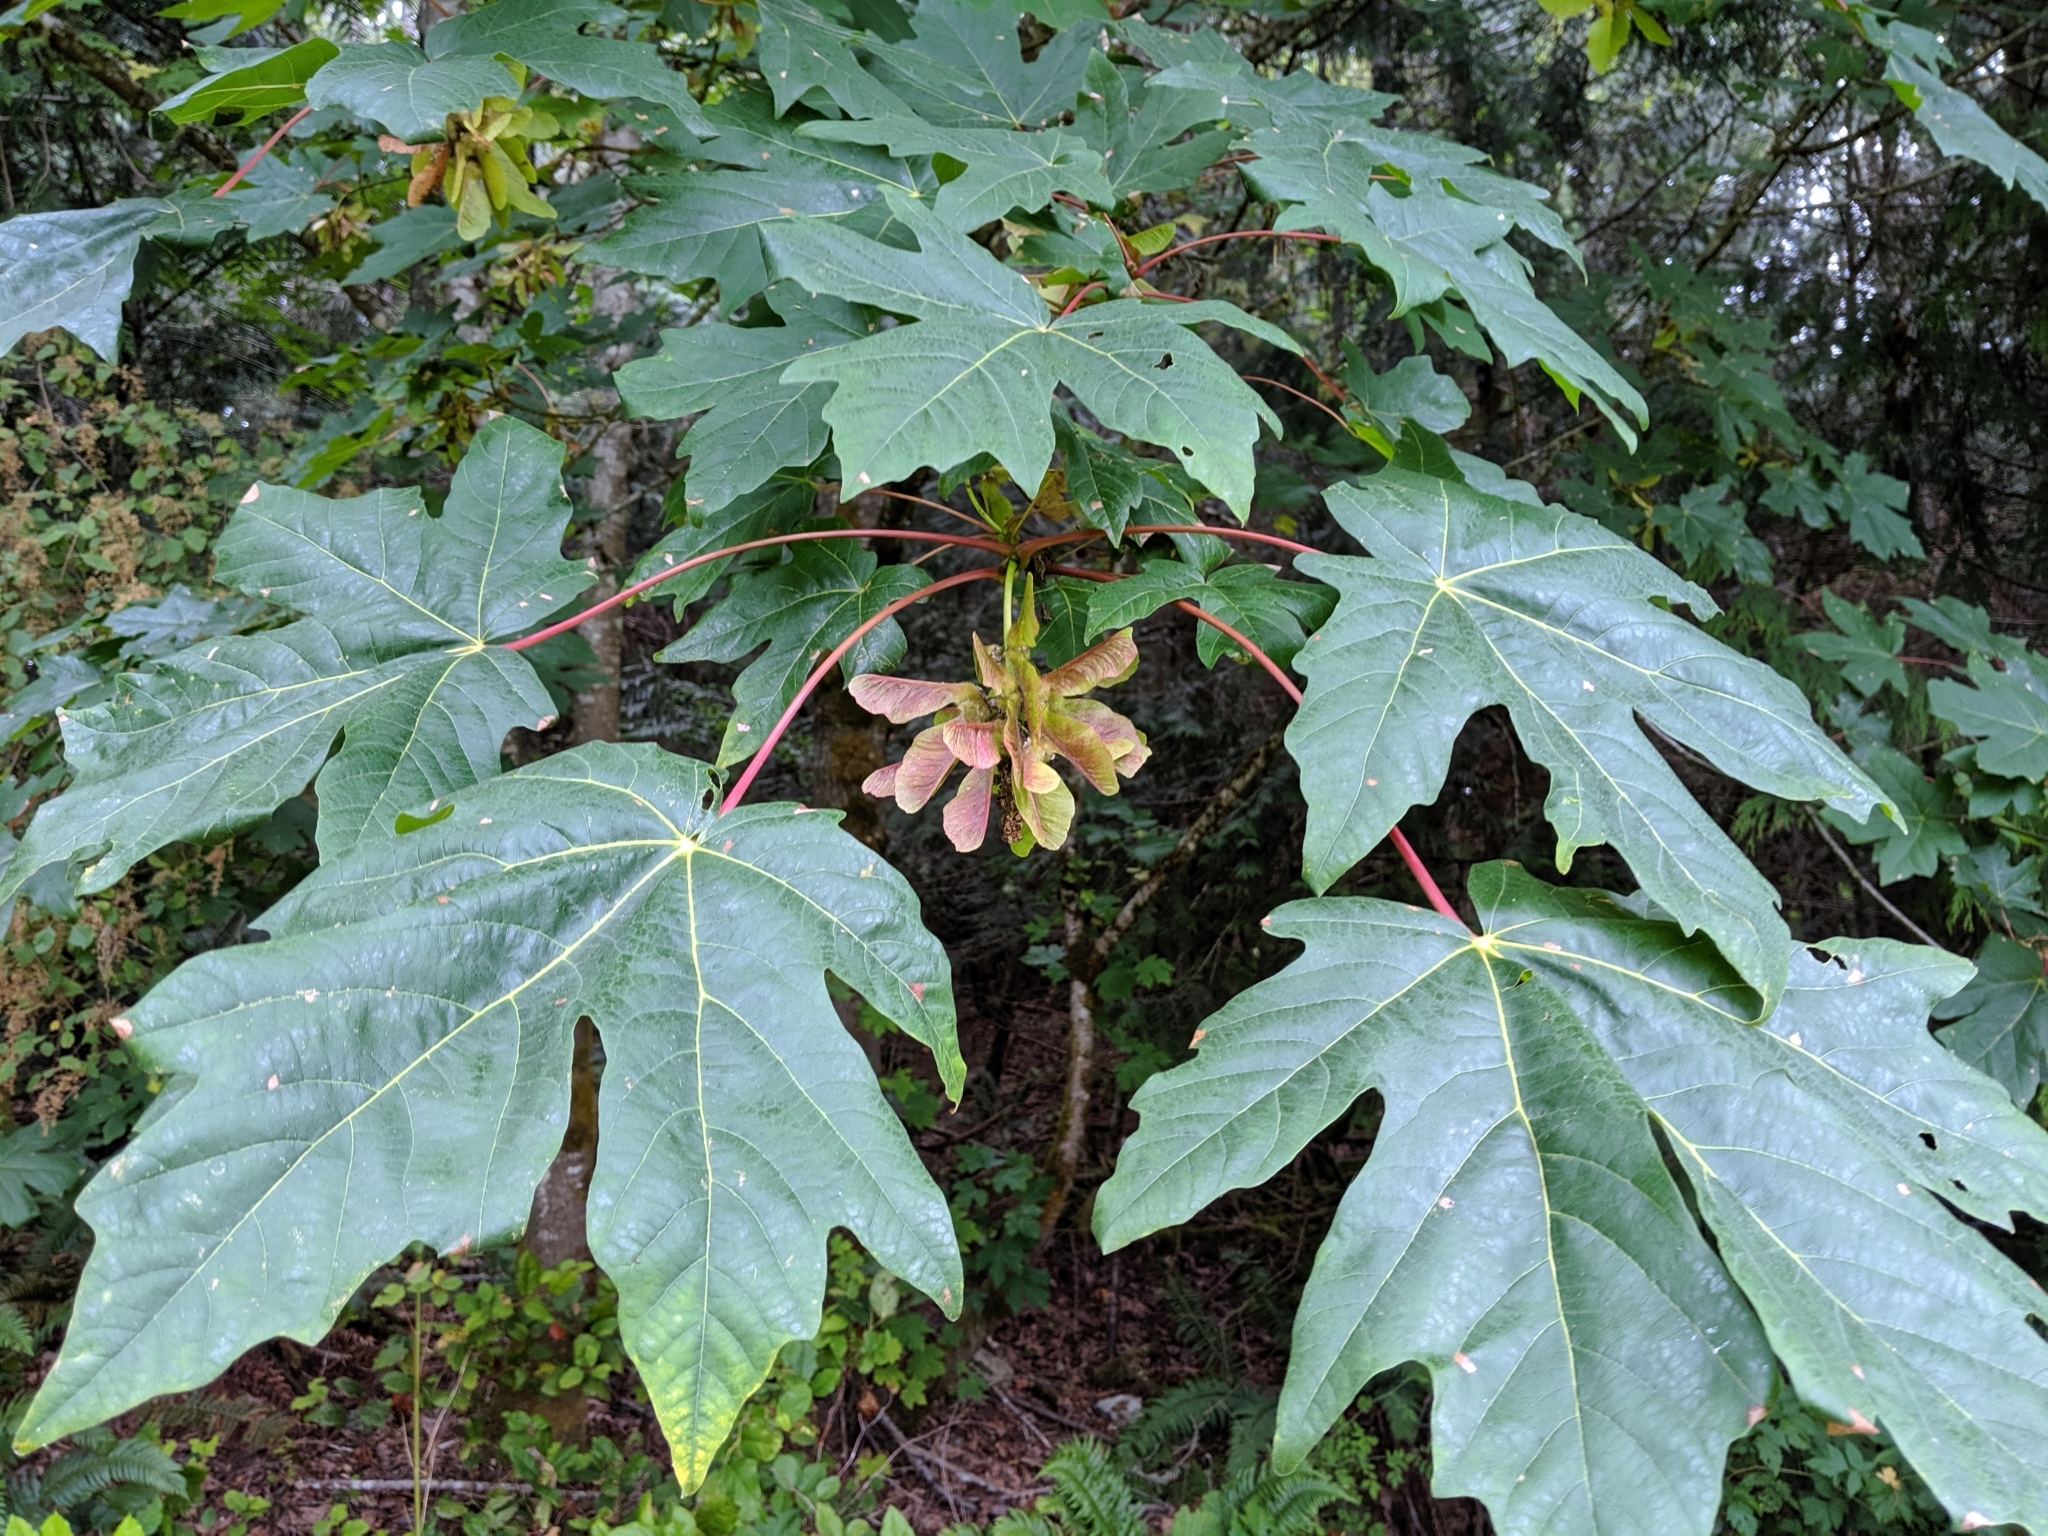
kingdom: Plantae
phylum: Tracheophyta
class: Magnoliopsida
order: Sapindales
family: Sapindaceae
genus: Acer
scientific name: Acer macrophyllum
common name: Oregon maple
